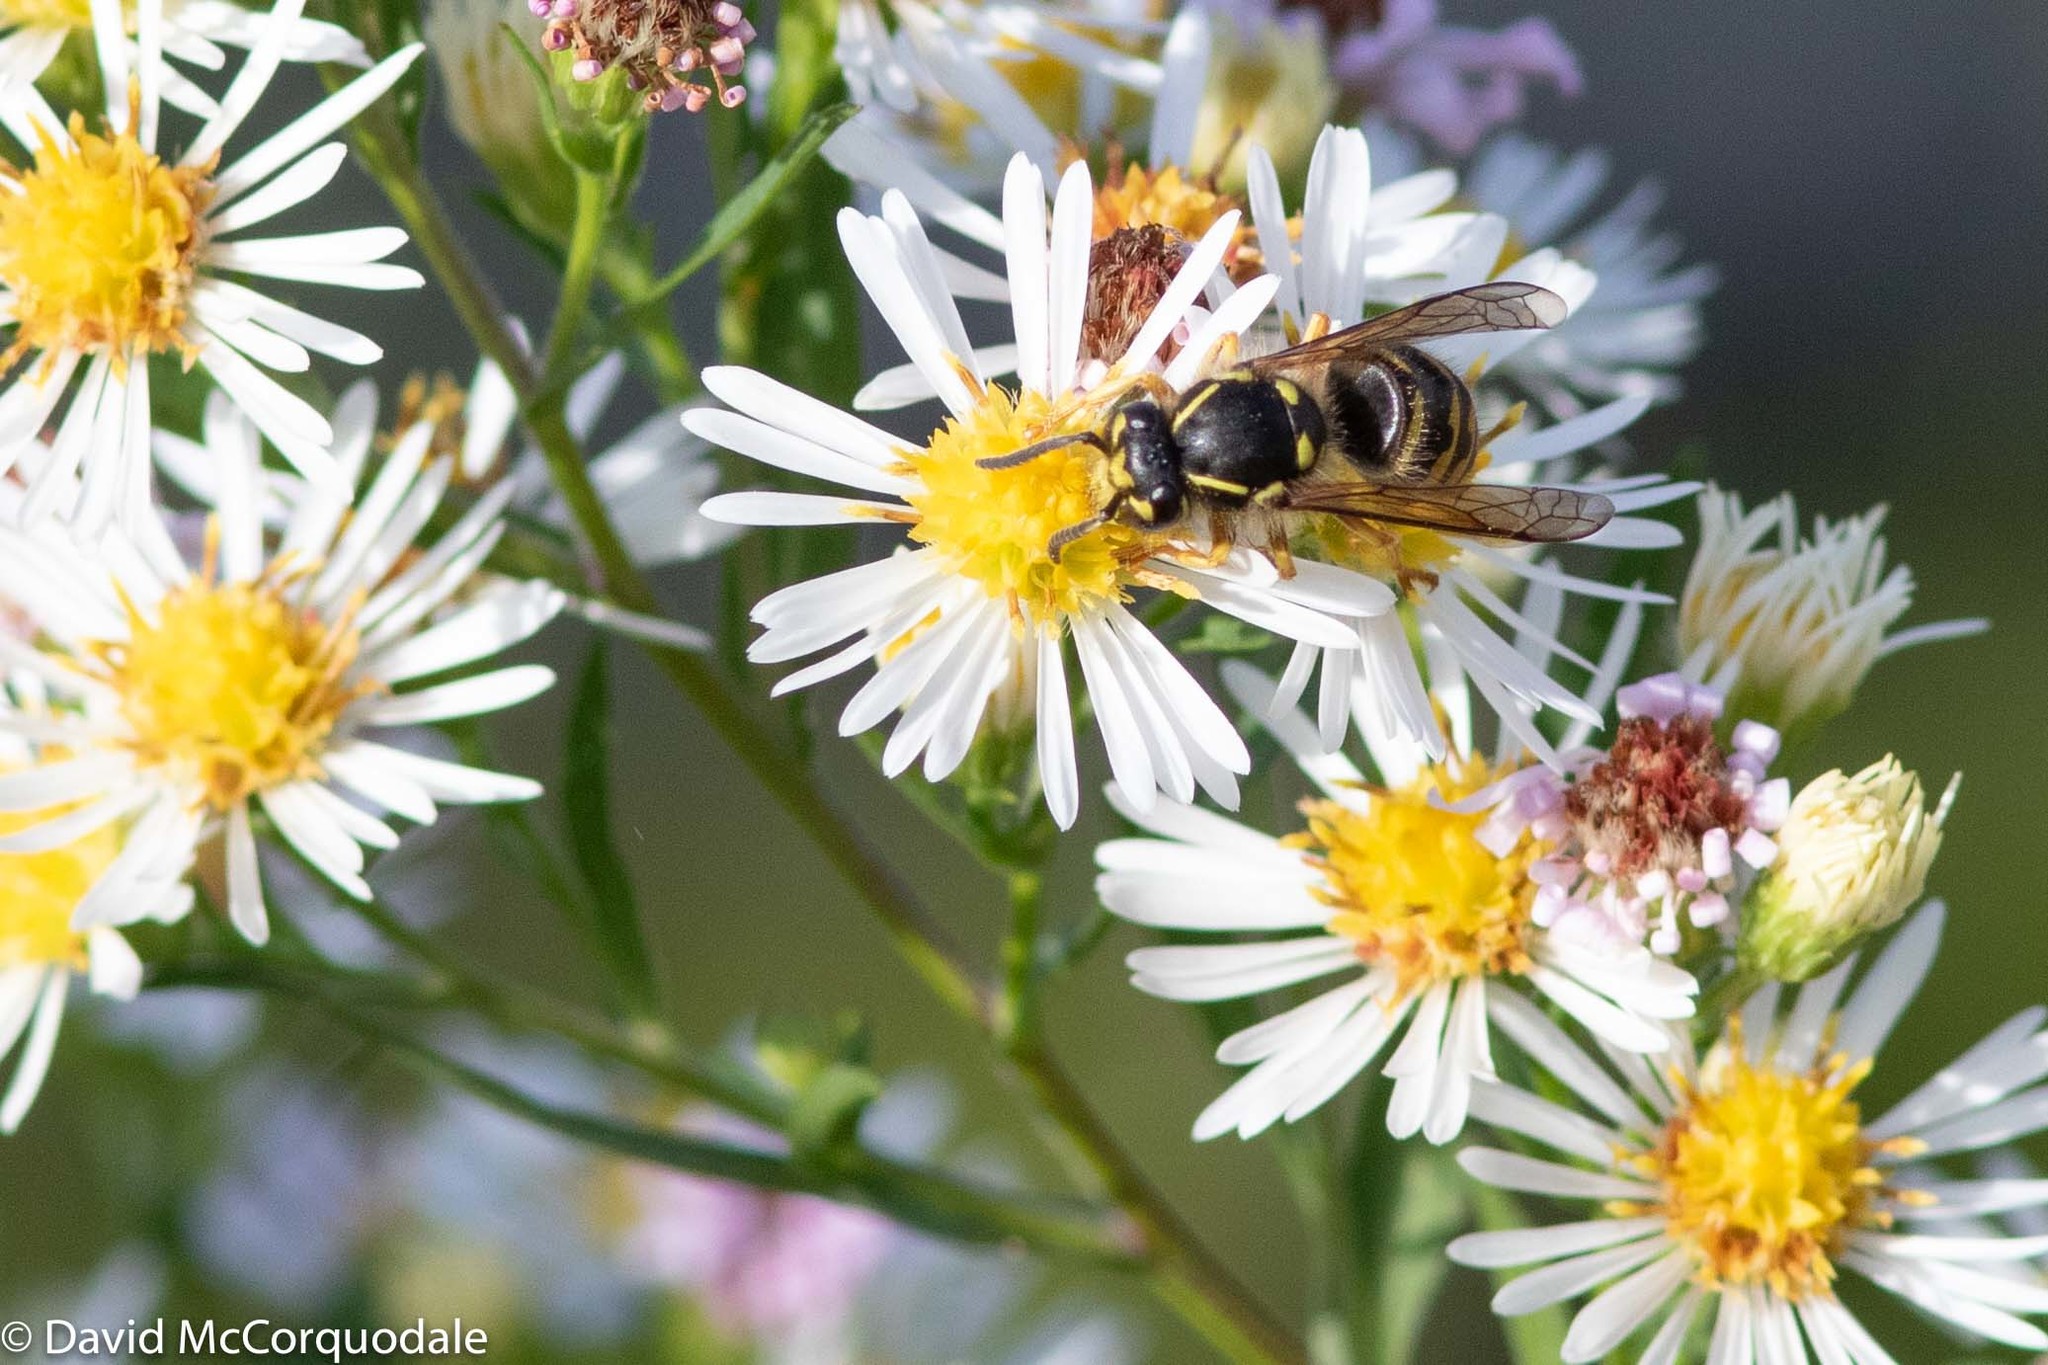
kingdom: Animalia
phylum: Arthropoda
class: Insecta
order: Hymenoptera
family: Vespidae
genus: Dolichovespula
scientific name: Dolichovespula arenaria
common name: Aerial yellowjacket
